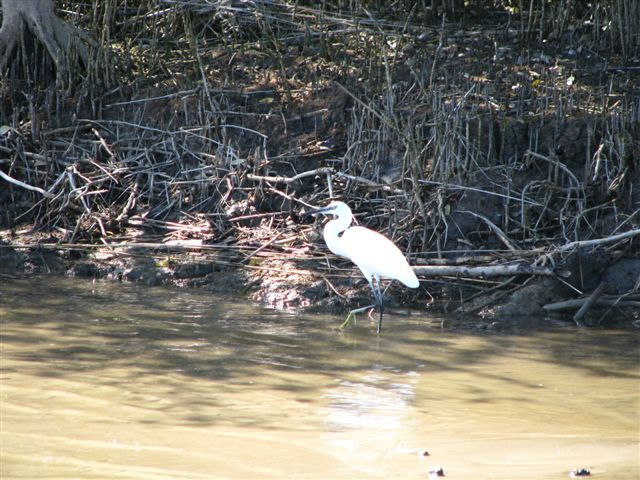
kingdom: Animalia
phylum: Chordata
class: Aves
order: Pelecaniformes
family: Ardeidae
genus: Egretta
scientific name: Egretta garzetta
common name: Little egret
